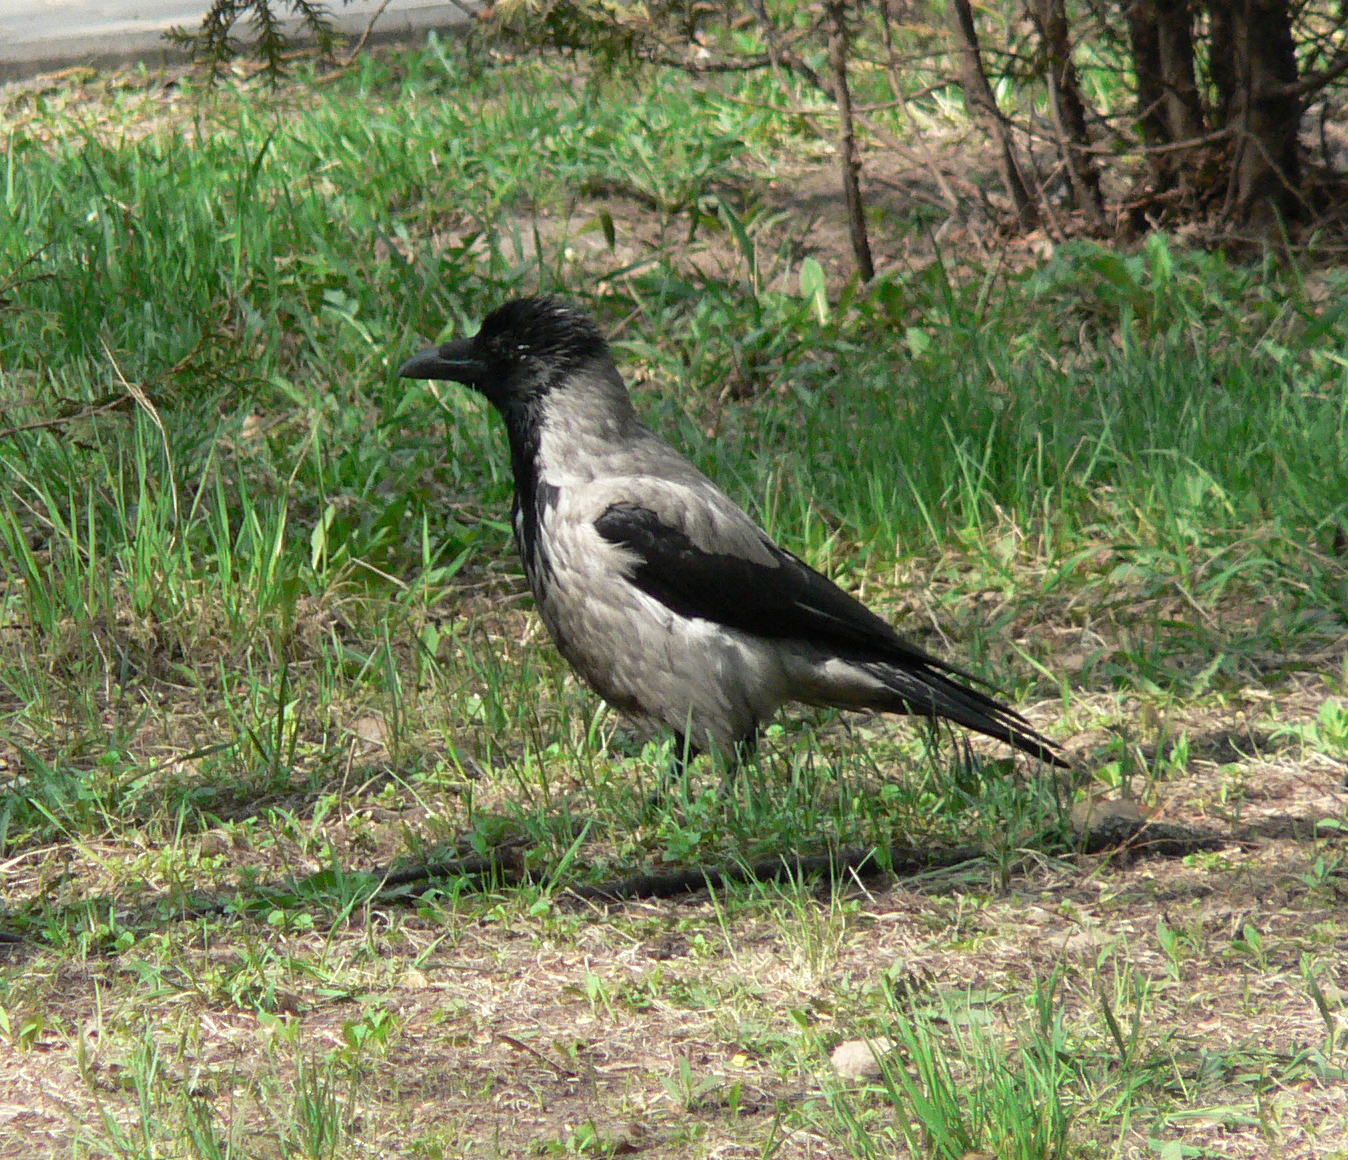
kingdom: Animalia
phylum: Chordata
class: Aves
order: Passeriformes
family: Corvidae
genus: Corvus
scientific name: Corvus cornix
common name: Hooded crow
